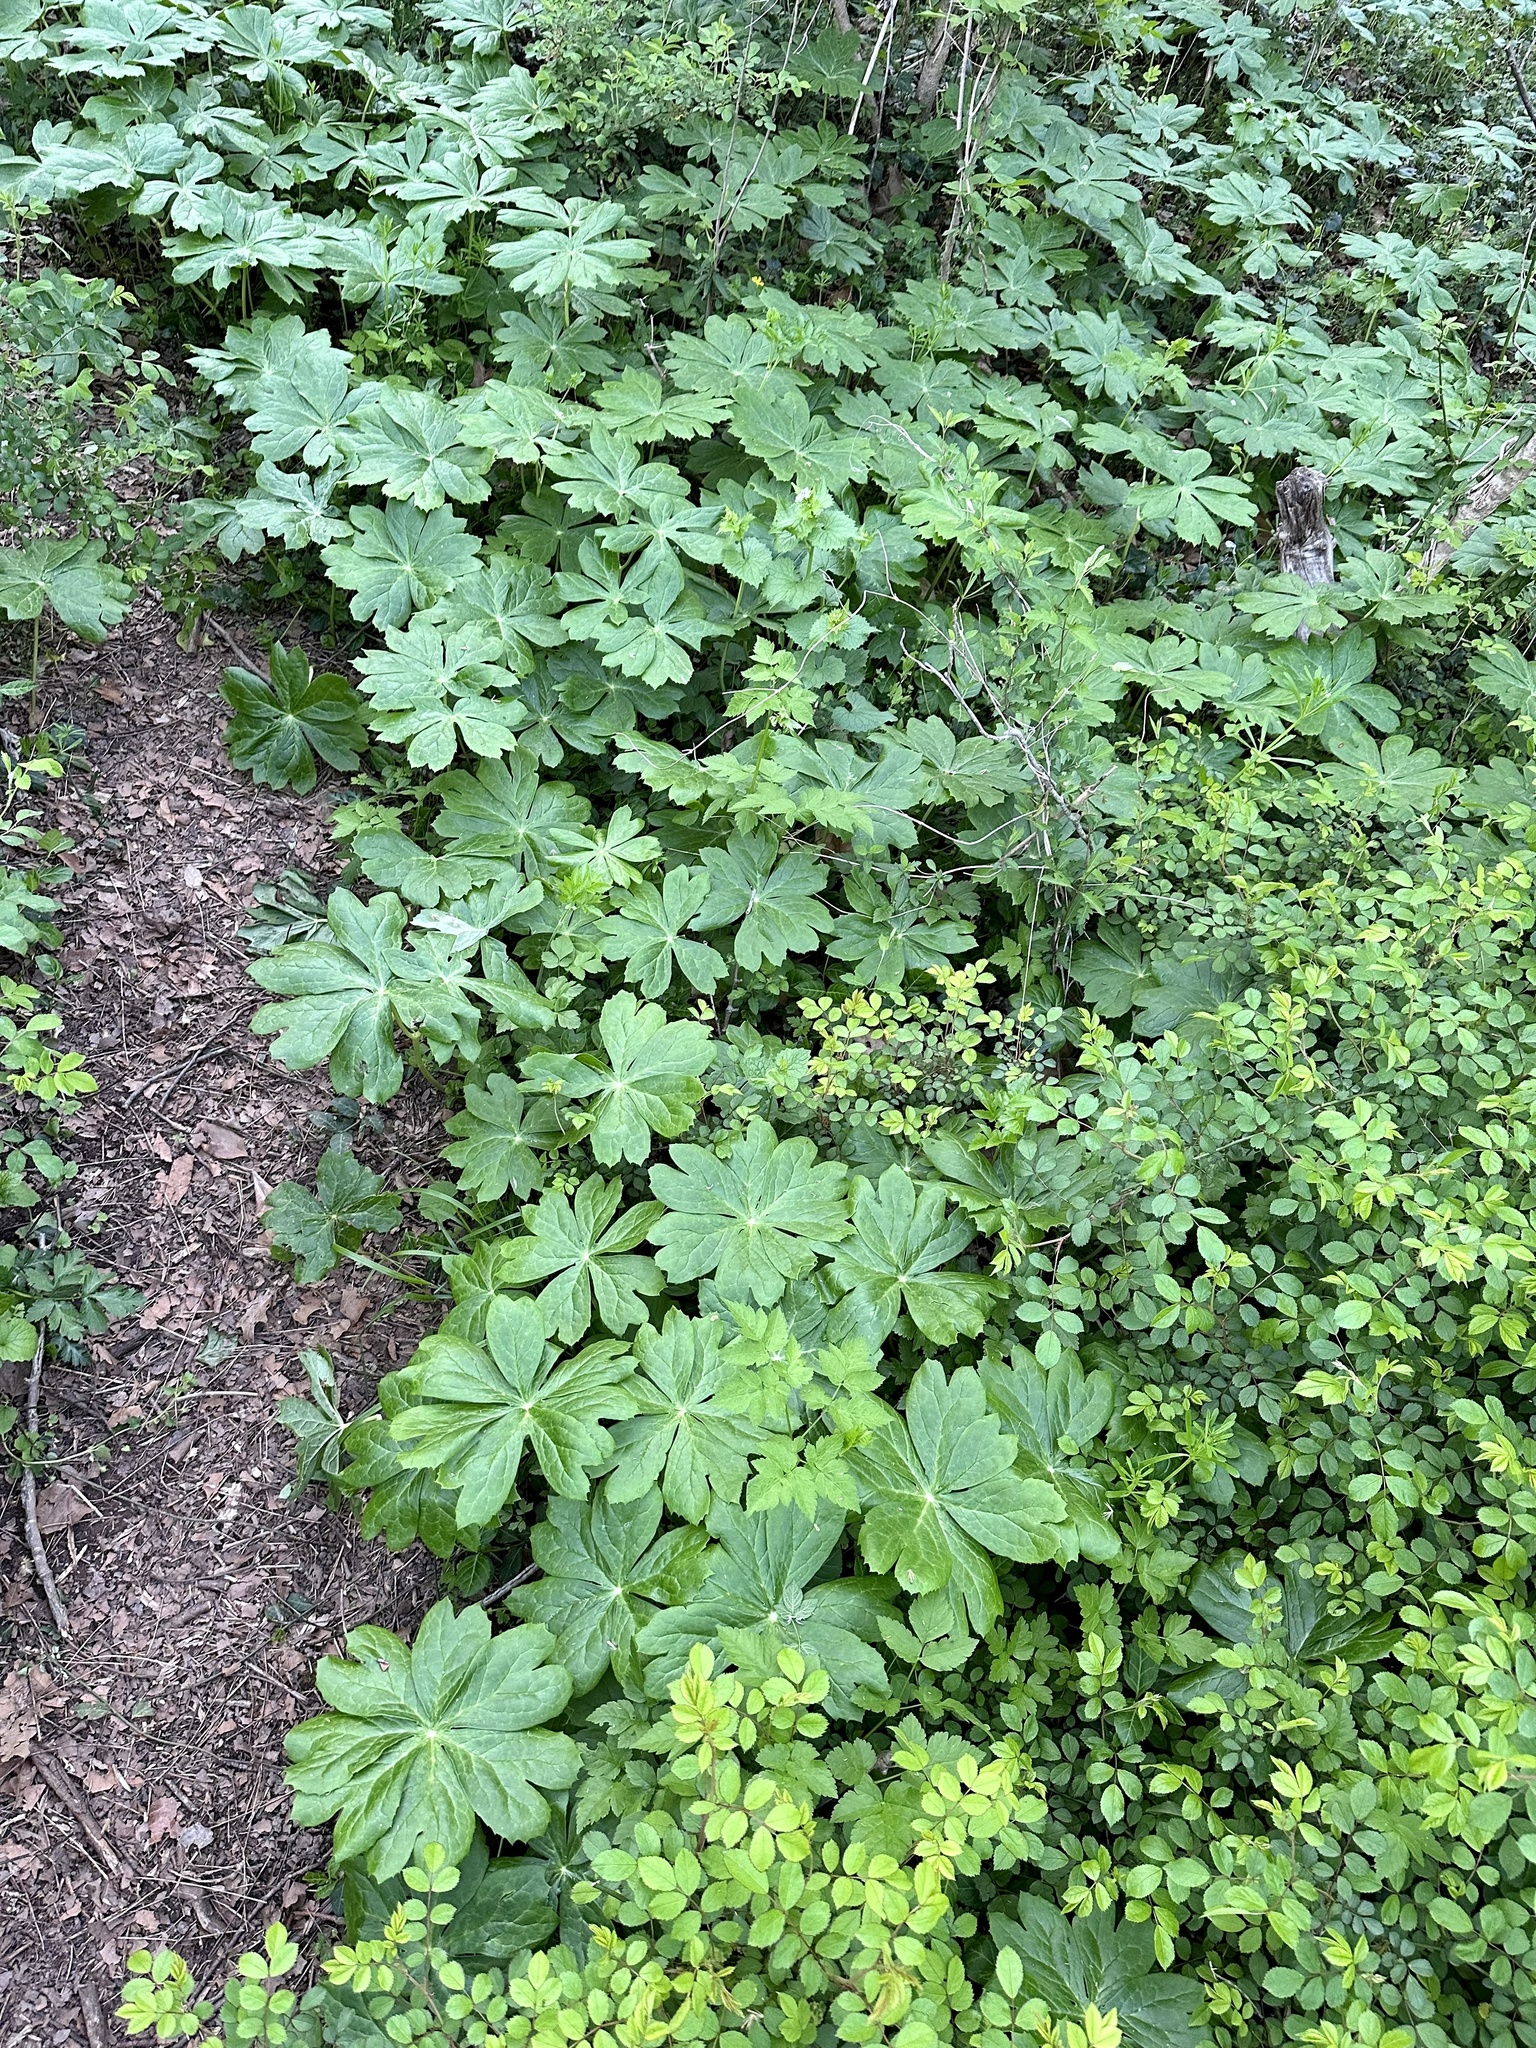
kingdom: Plantae
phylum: Tracheophyta
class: Magnoliopsida
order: Ranunculales
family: Berberidaceae
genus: Podophyllum
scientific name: Podophyllum peltatum
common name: Wild mandrake
